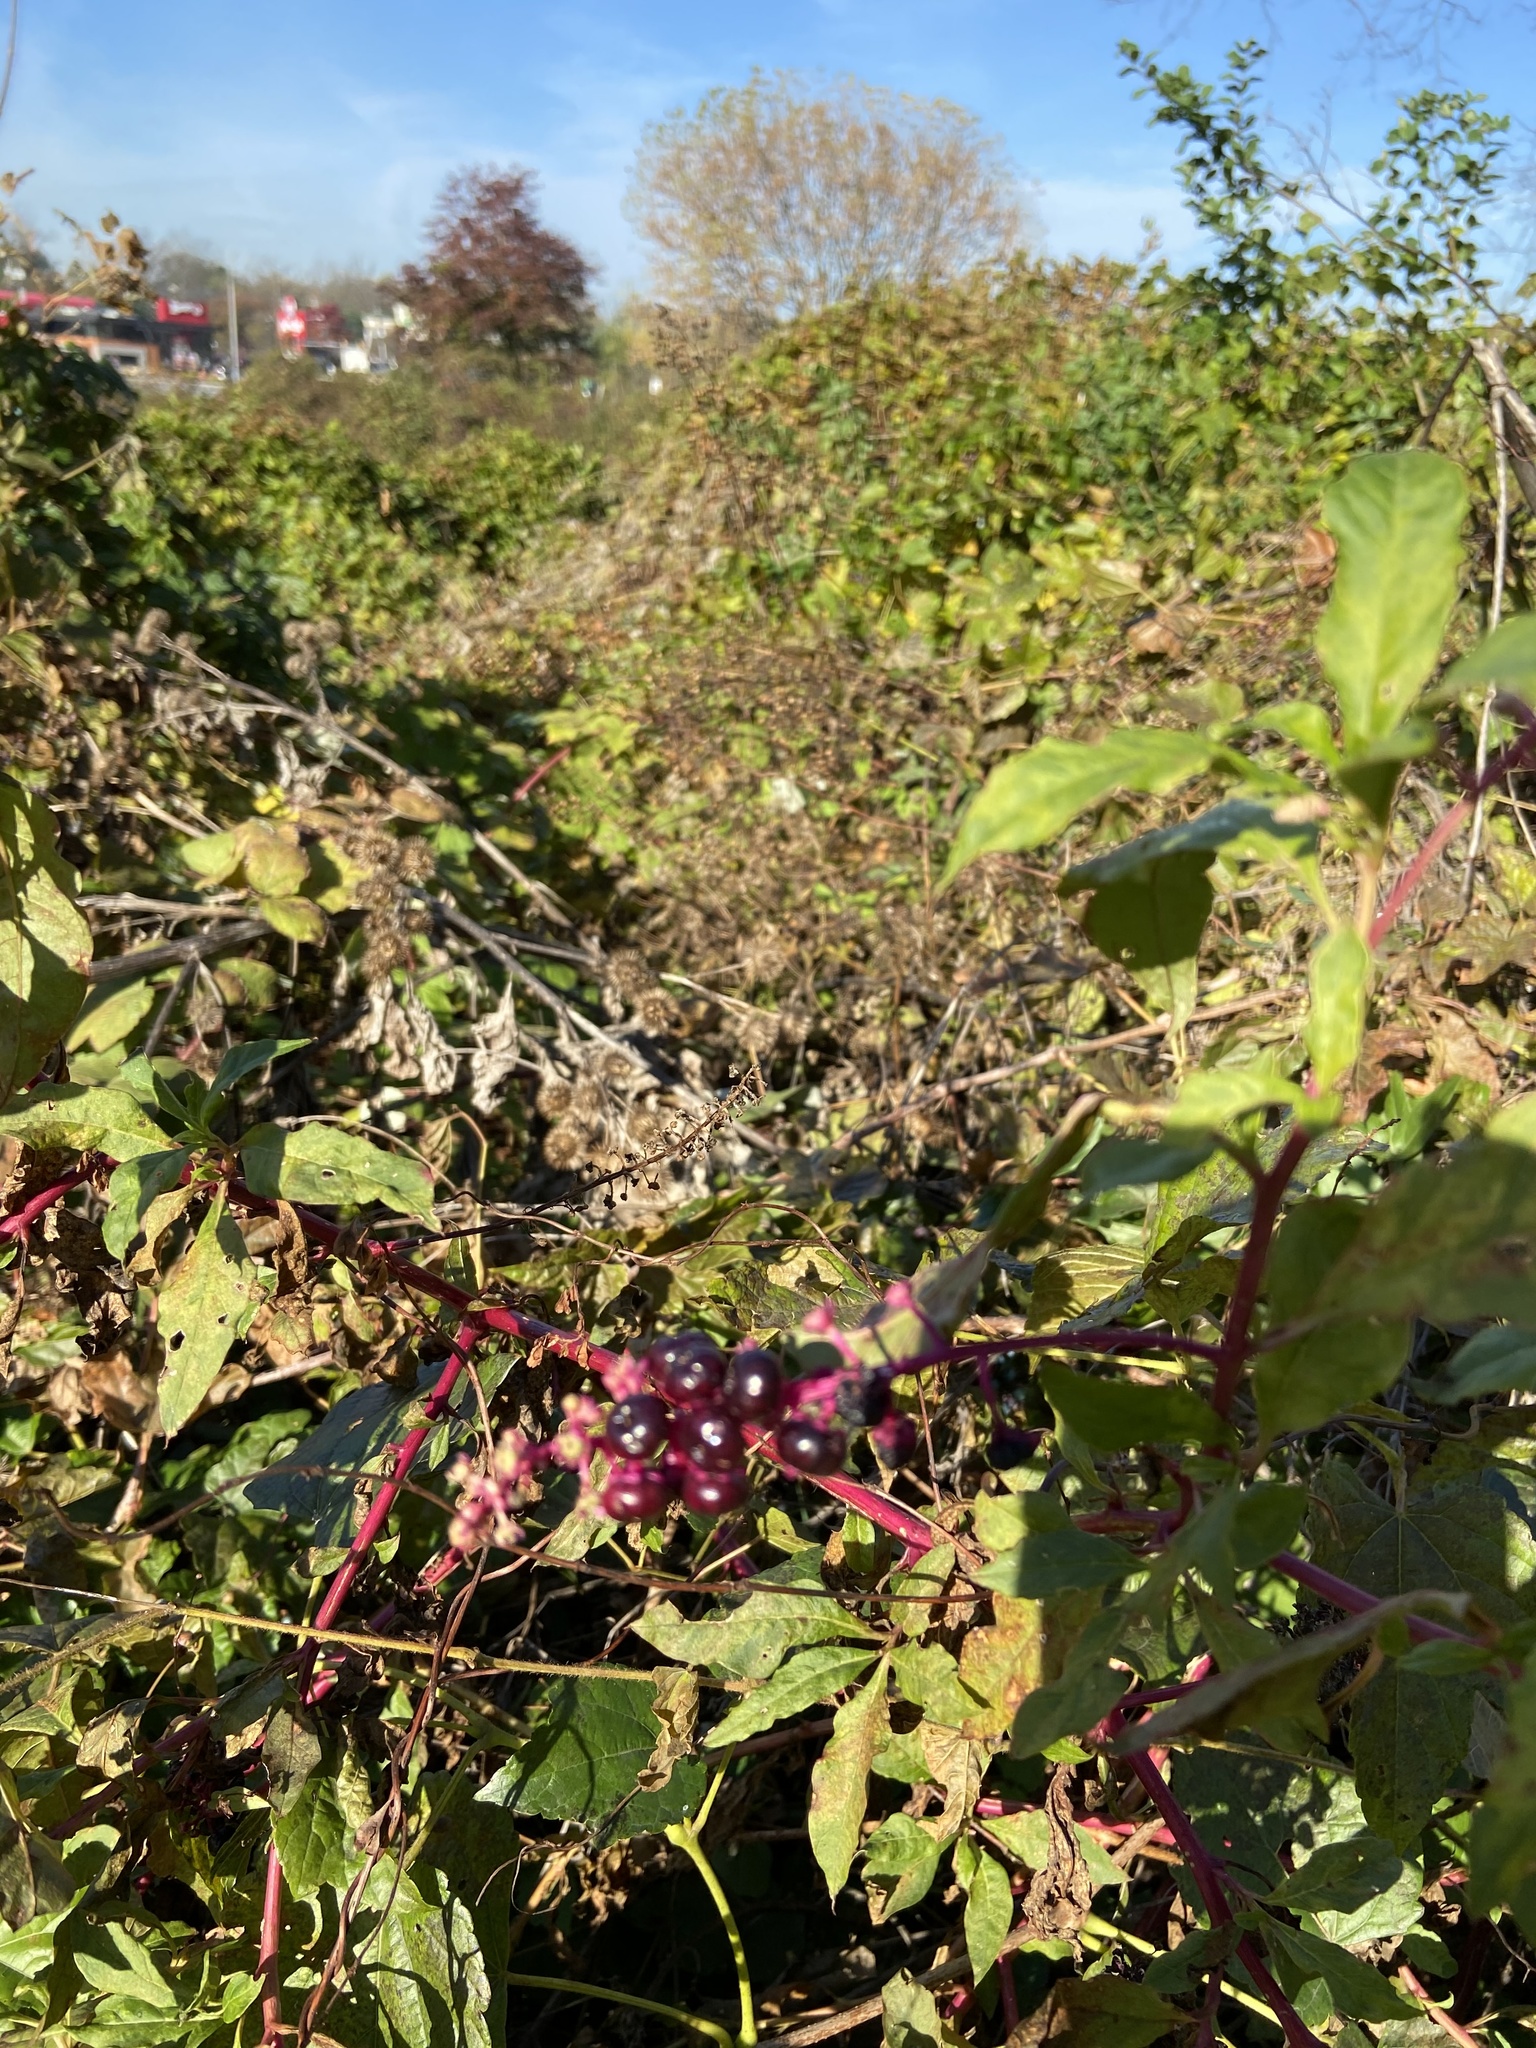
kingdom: Plantae
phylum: Tracheophyta
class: Magnoliopsida
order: Caryophyllales
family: Phytolaccaceae
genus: Phytolacca
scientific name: Phytolacca americana
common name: American pokeweed
